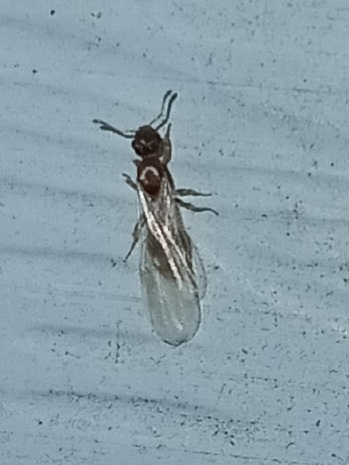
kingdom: Animalia
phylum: Arthropoda
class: Insecta
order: Hymenoptera
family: Formicidae
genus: Temnothorax
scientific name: Temnothorax curvispinosus
